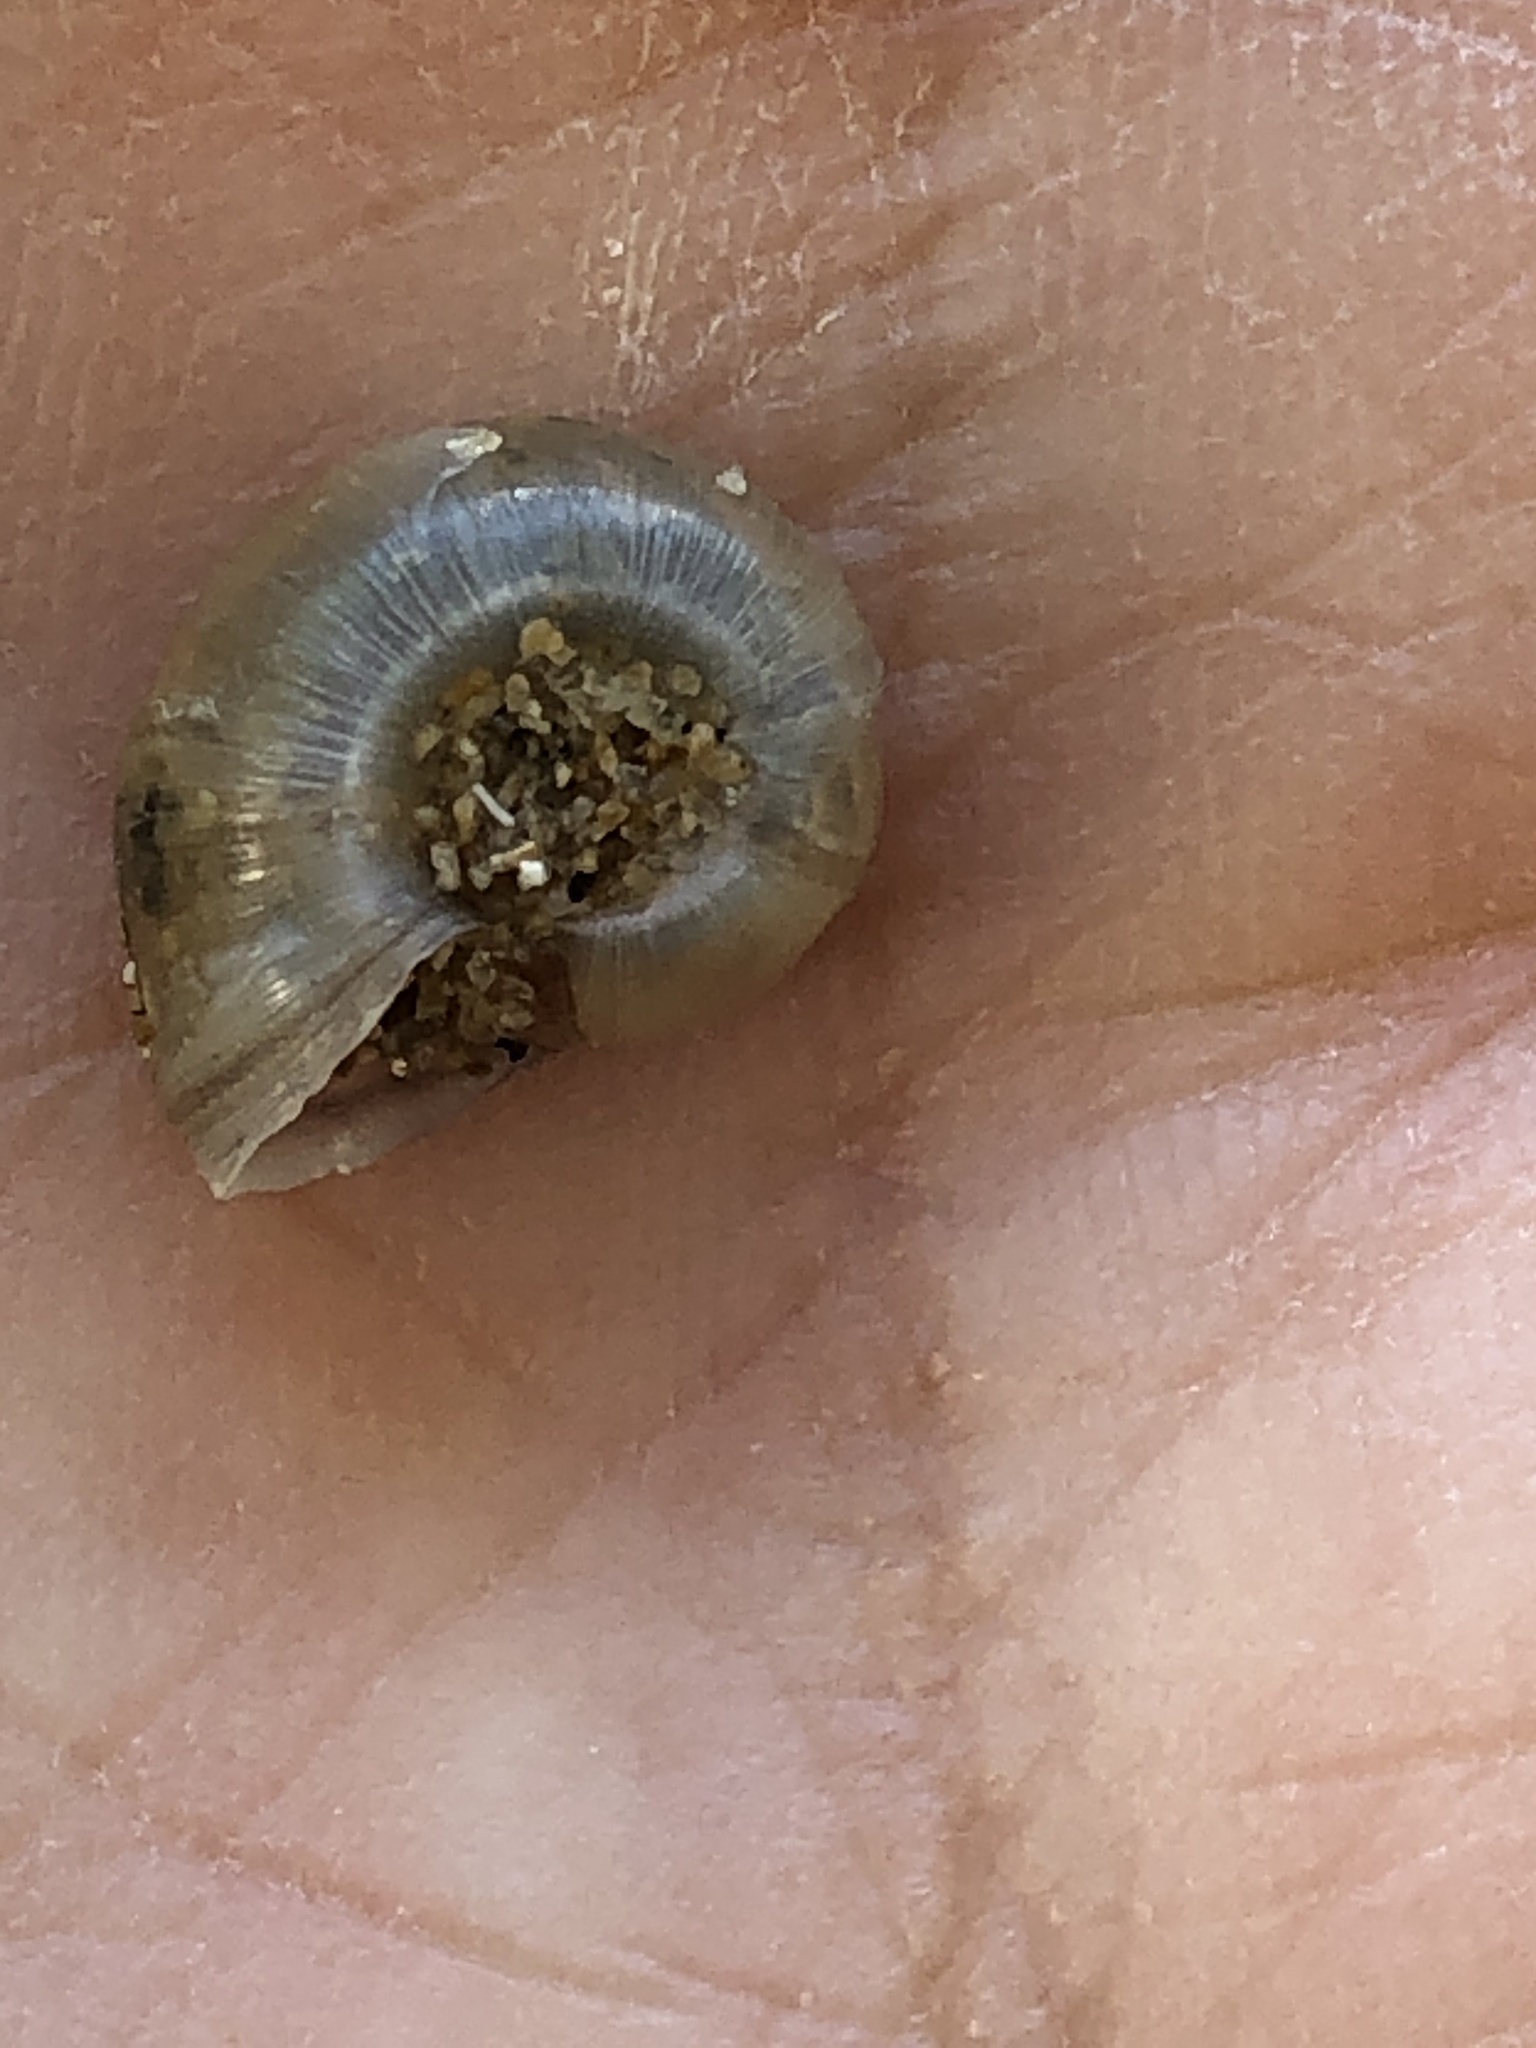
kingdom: Animalia
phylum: Mollusca
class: Gastropoda
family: Planorbidae
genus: Planorbella
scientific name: Planorbella trivolvis
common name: Marsh rams-horn
